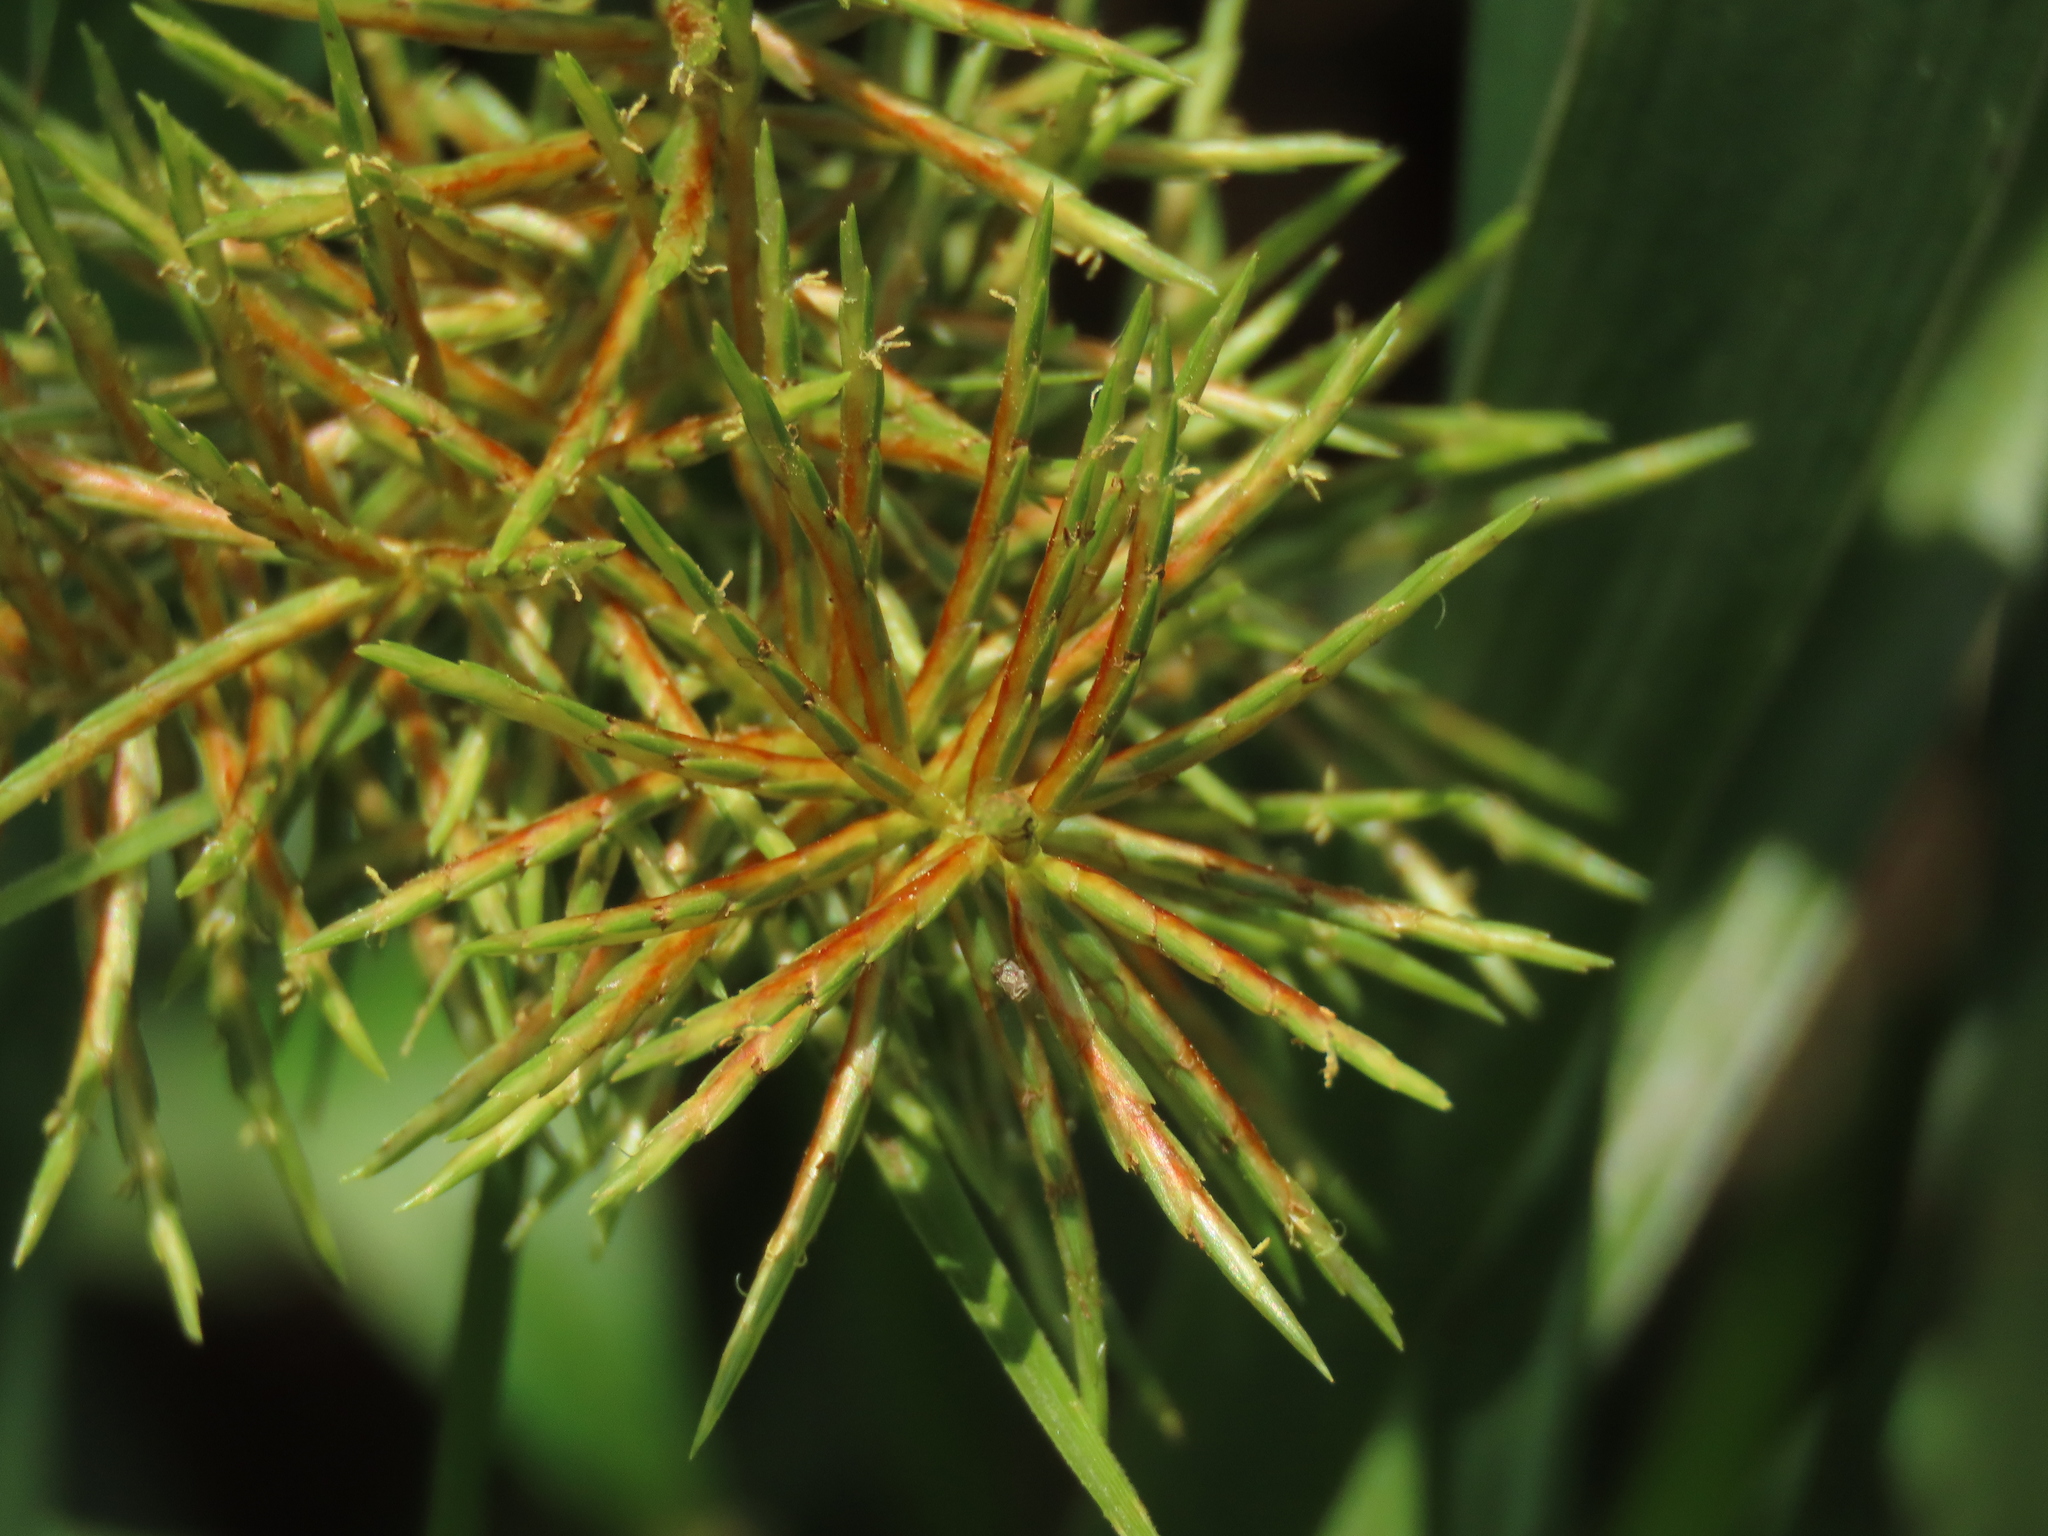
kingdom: Plantae
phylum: Tracheophyta
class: Liliopsida
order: Poales
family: Cyperaceae
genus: Cyperus
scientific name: Cyperus odoratus
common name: Fragrant flatsedge
